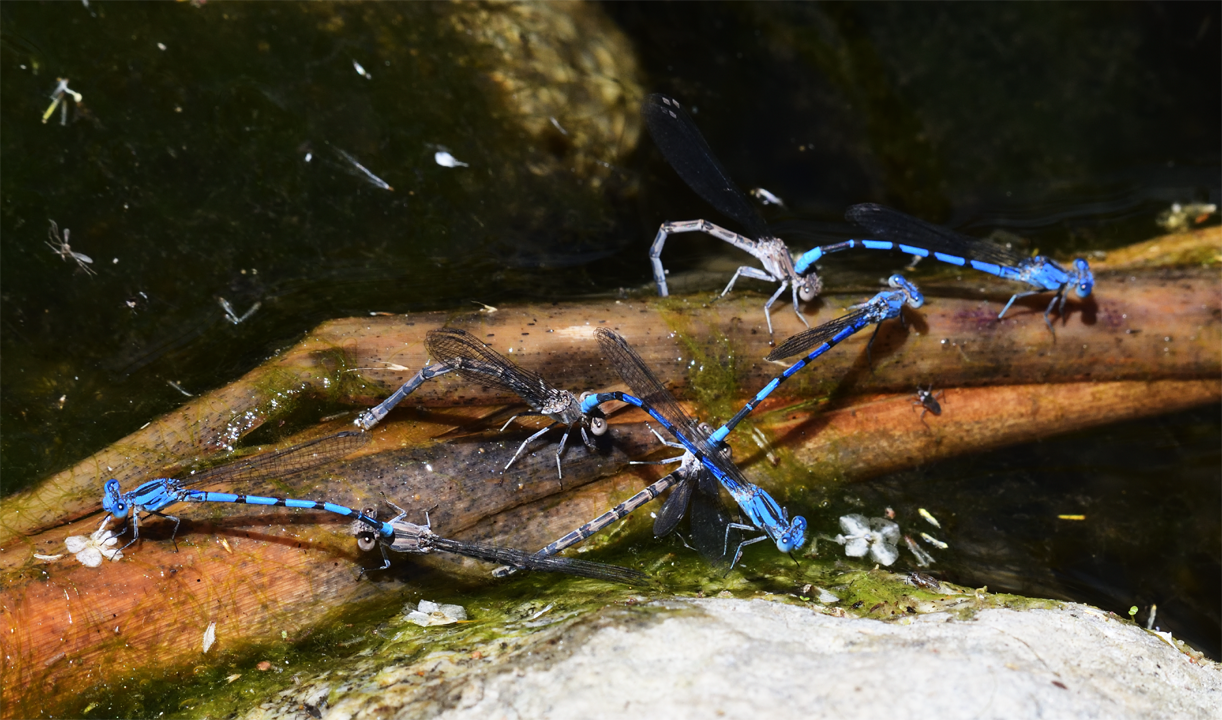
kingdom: Animalia
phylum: Arthropoda
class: Insecta
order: Odonata
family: Coenagrionidae
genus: Argia
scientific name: Argia agrioides
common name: California dancer
